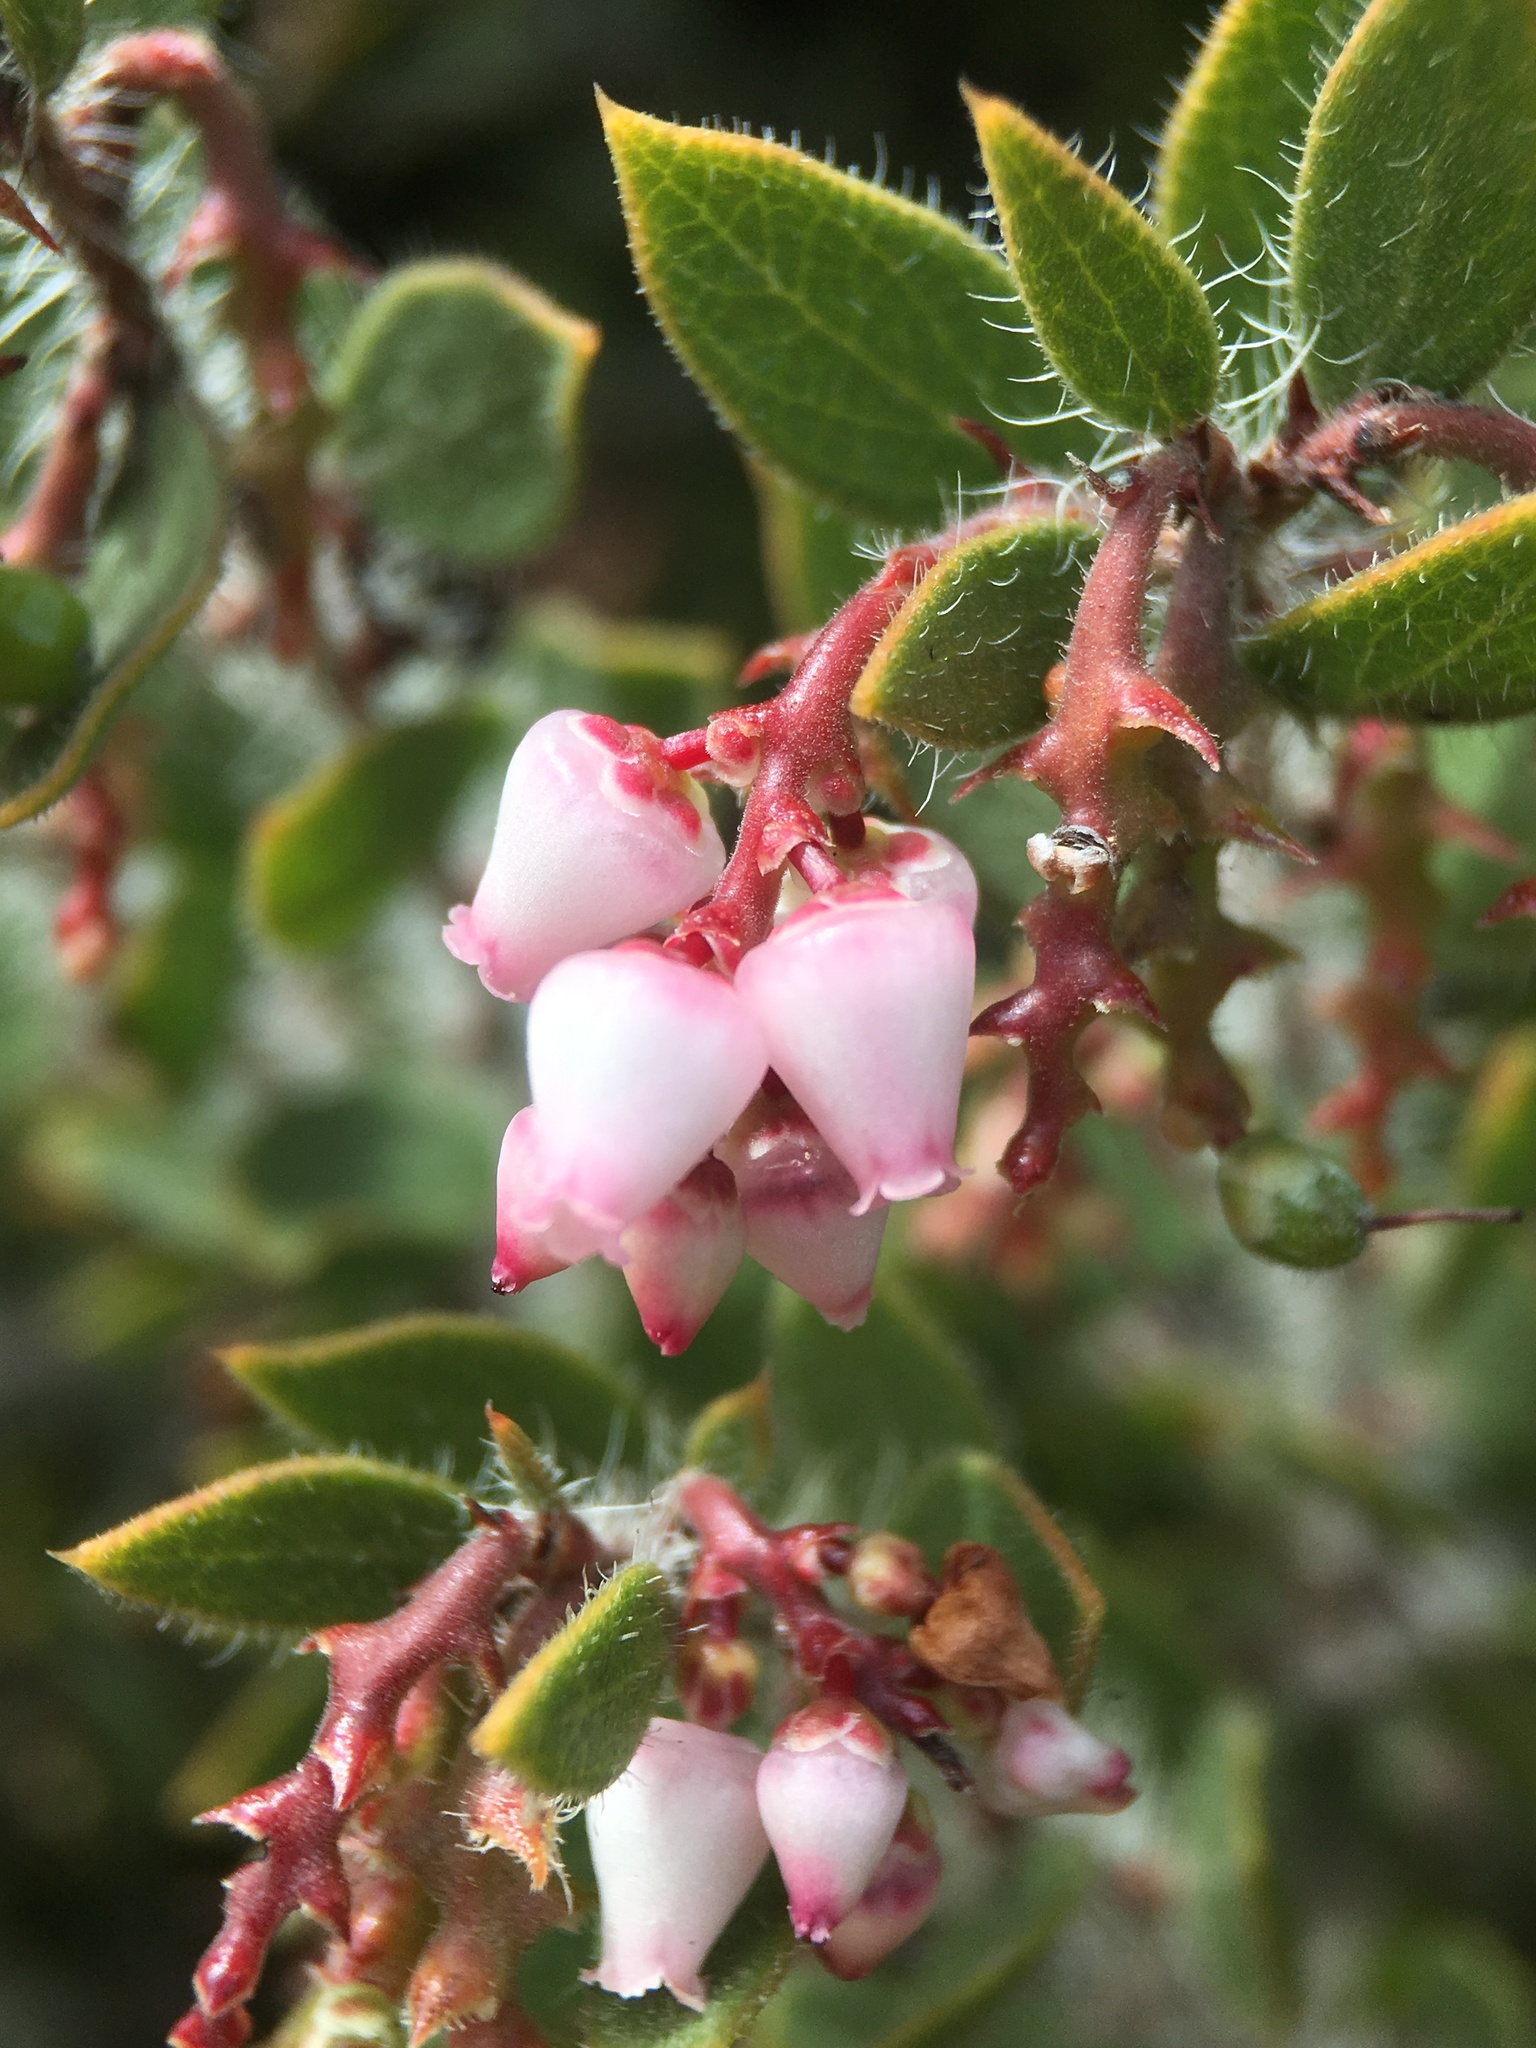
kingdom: Plantae
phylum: Tracheophyta
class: Magnoliopsida
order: Ericales
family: Ericaceae
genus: Arctostaphylos
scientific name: Arctostaphylos myrtifolia
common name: Ione manzanita
